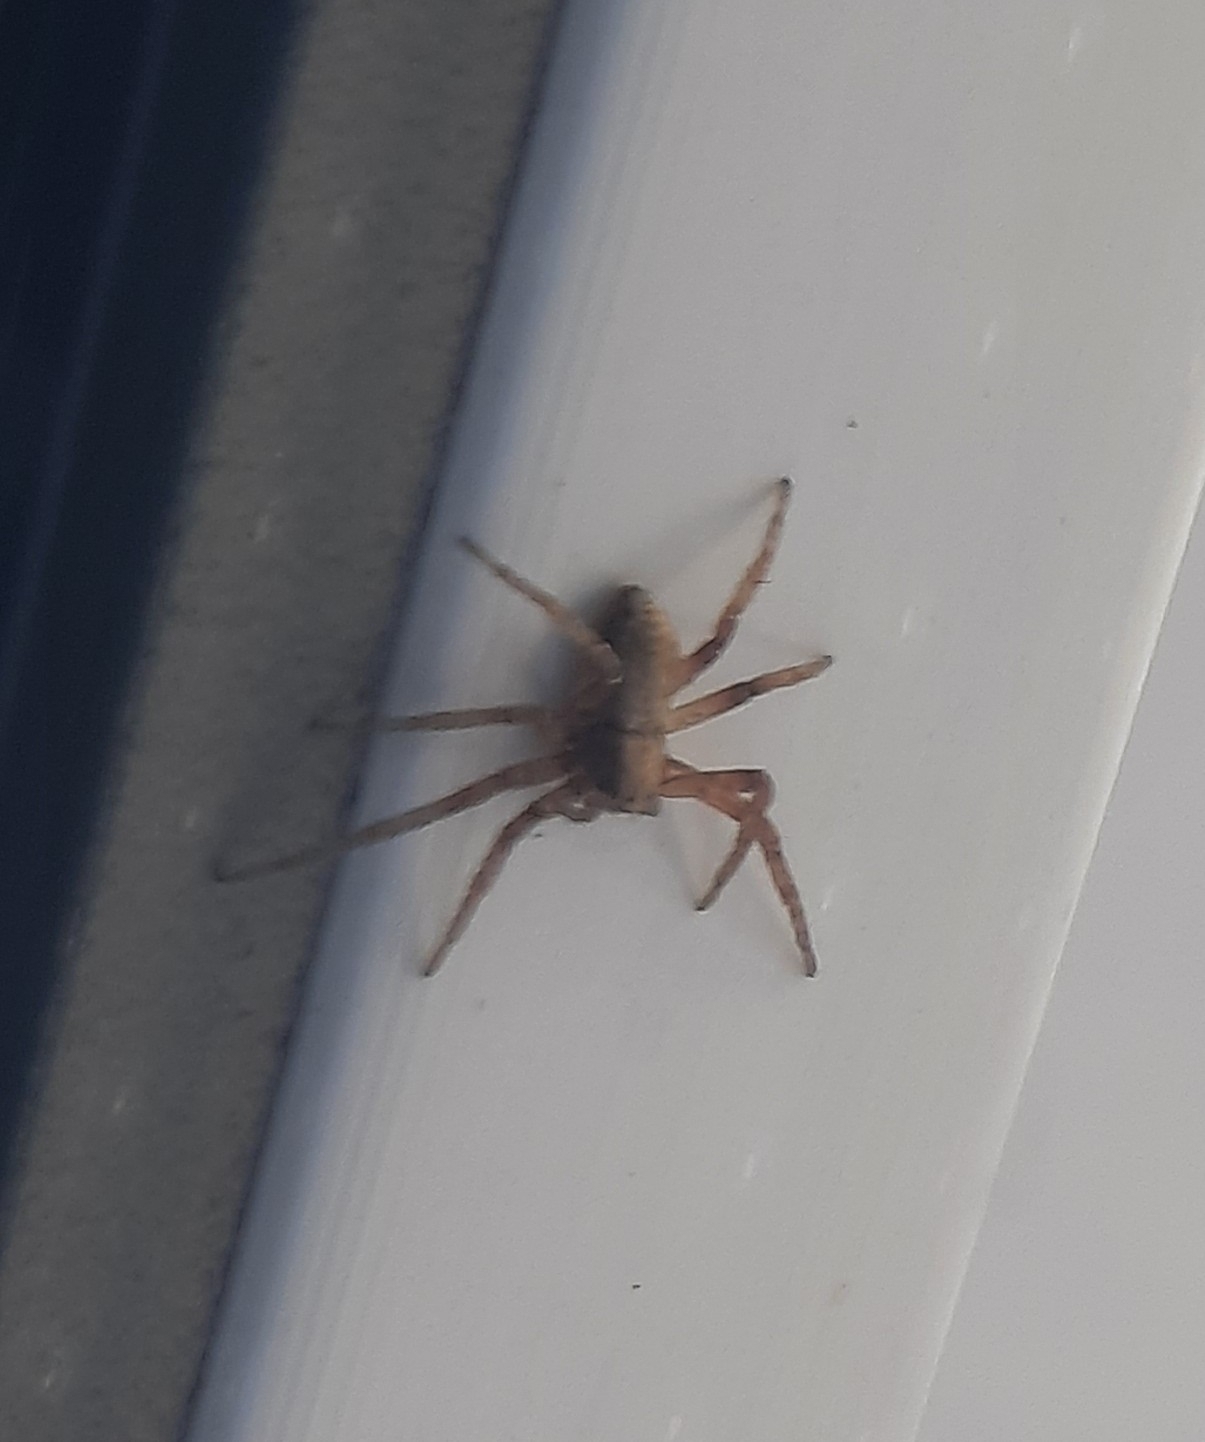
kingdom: Animalia
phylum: Arthropoda
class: Arachnida
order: Araneae
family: Philodromidae
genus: Philodromus
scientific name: Philodromus
